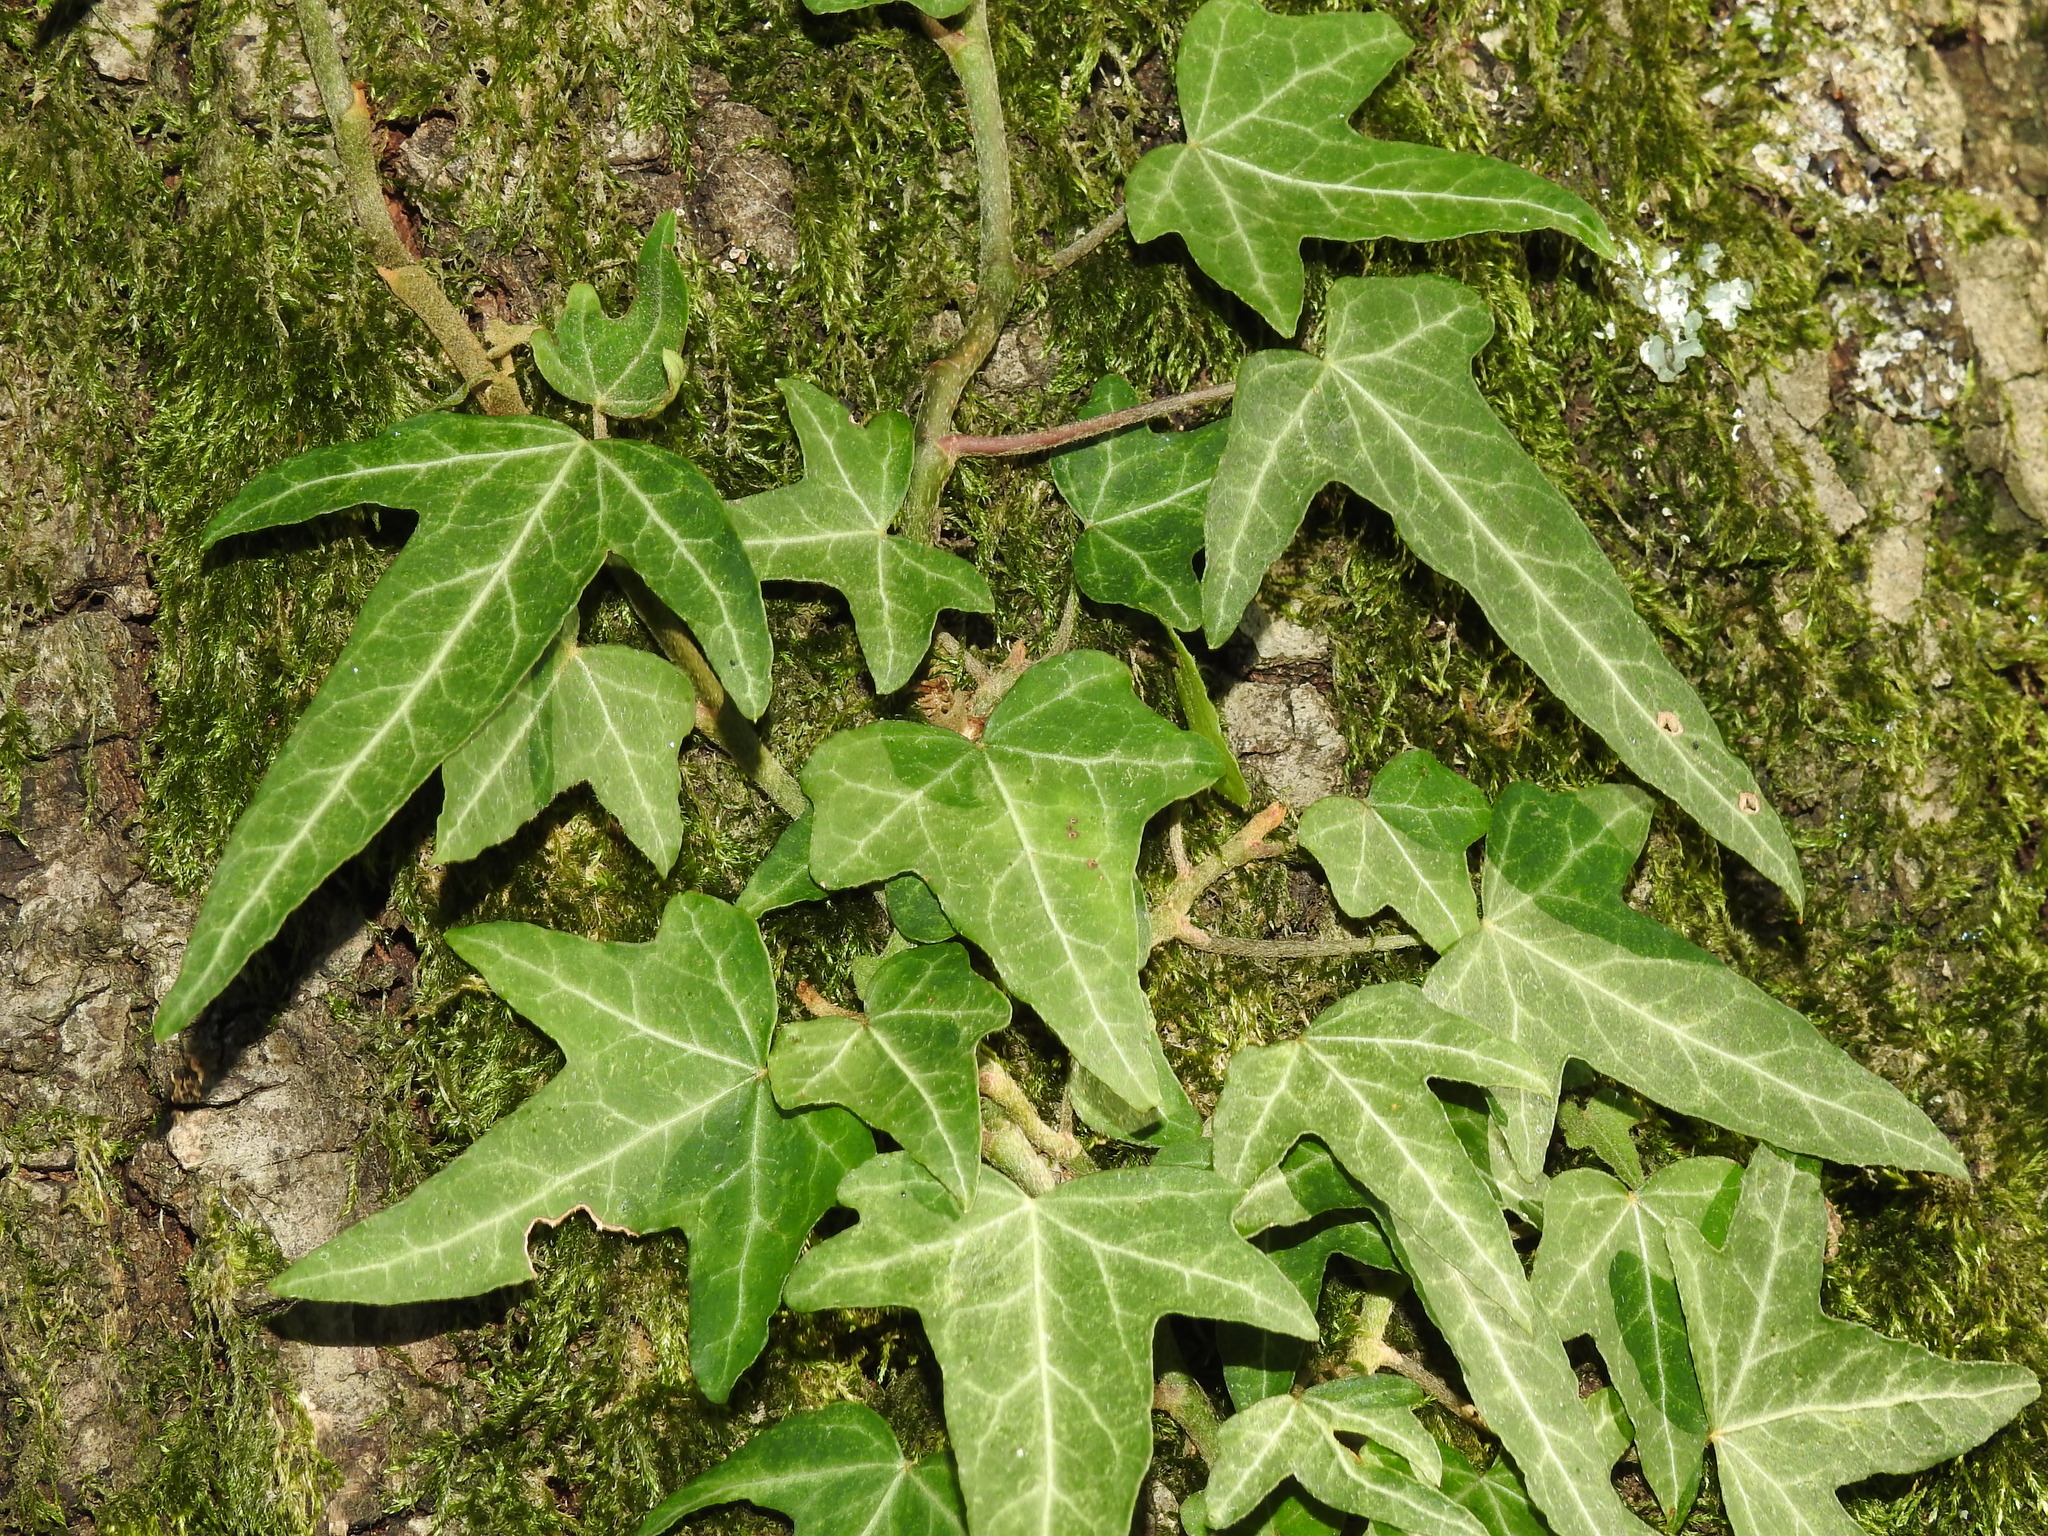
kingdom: Plantae
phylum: Tracheophyta
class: Magnoliopsida
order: Apiales
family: Araliaceae
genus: Hedera
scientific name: Hedera helix
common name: Ivy
